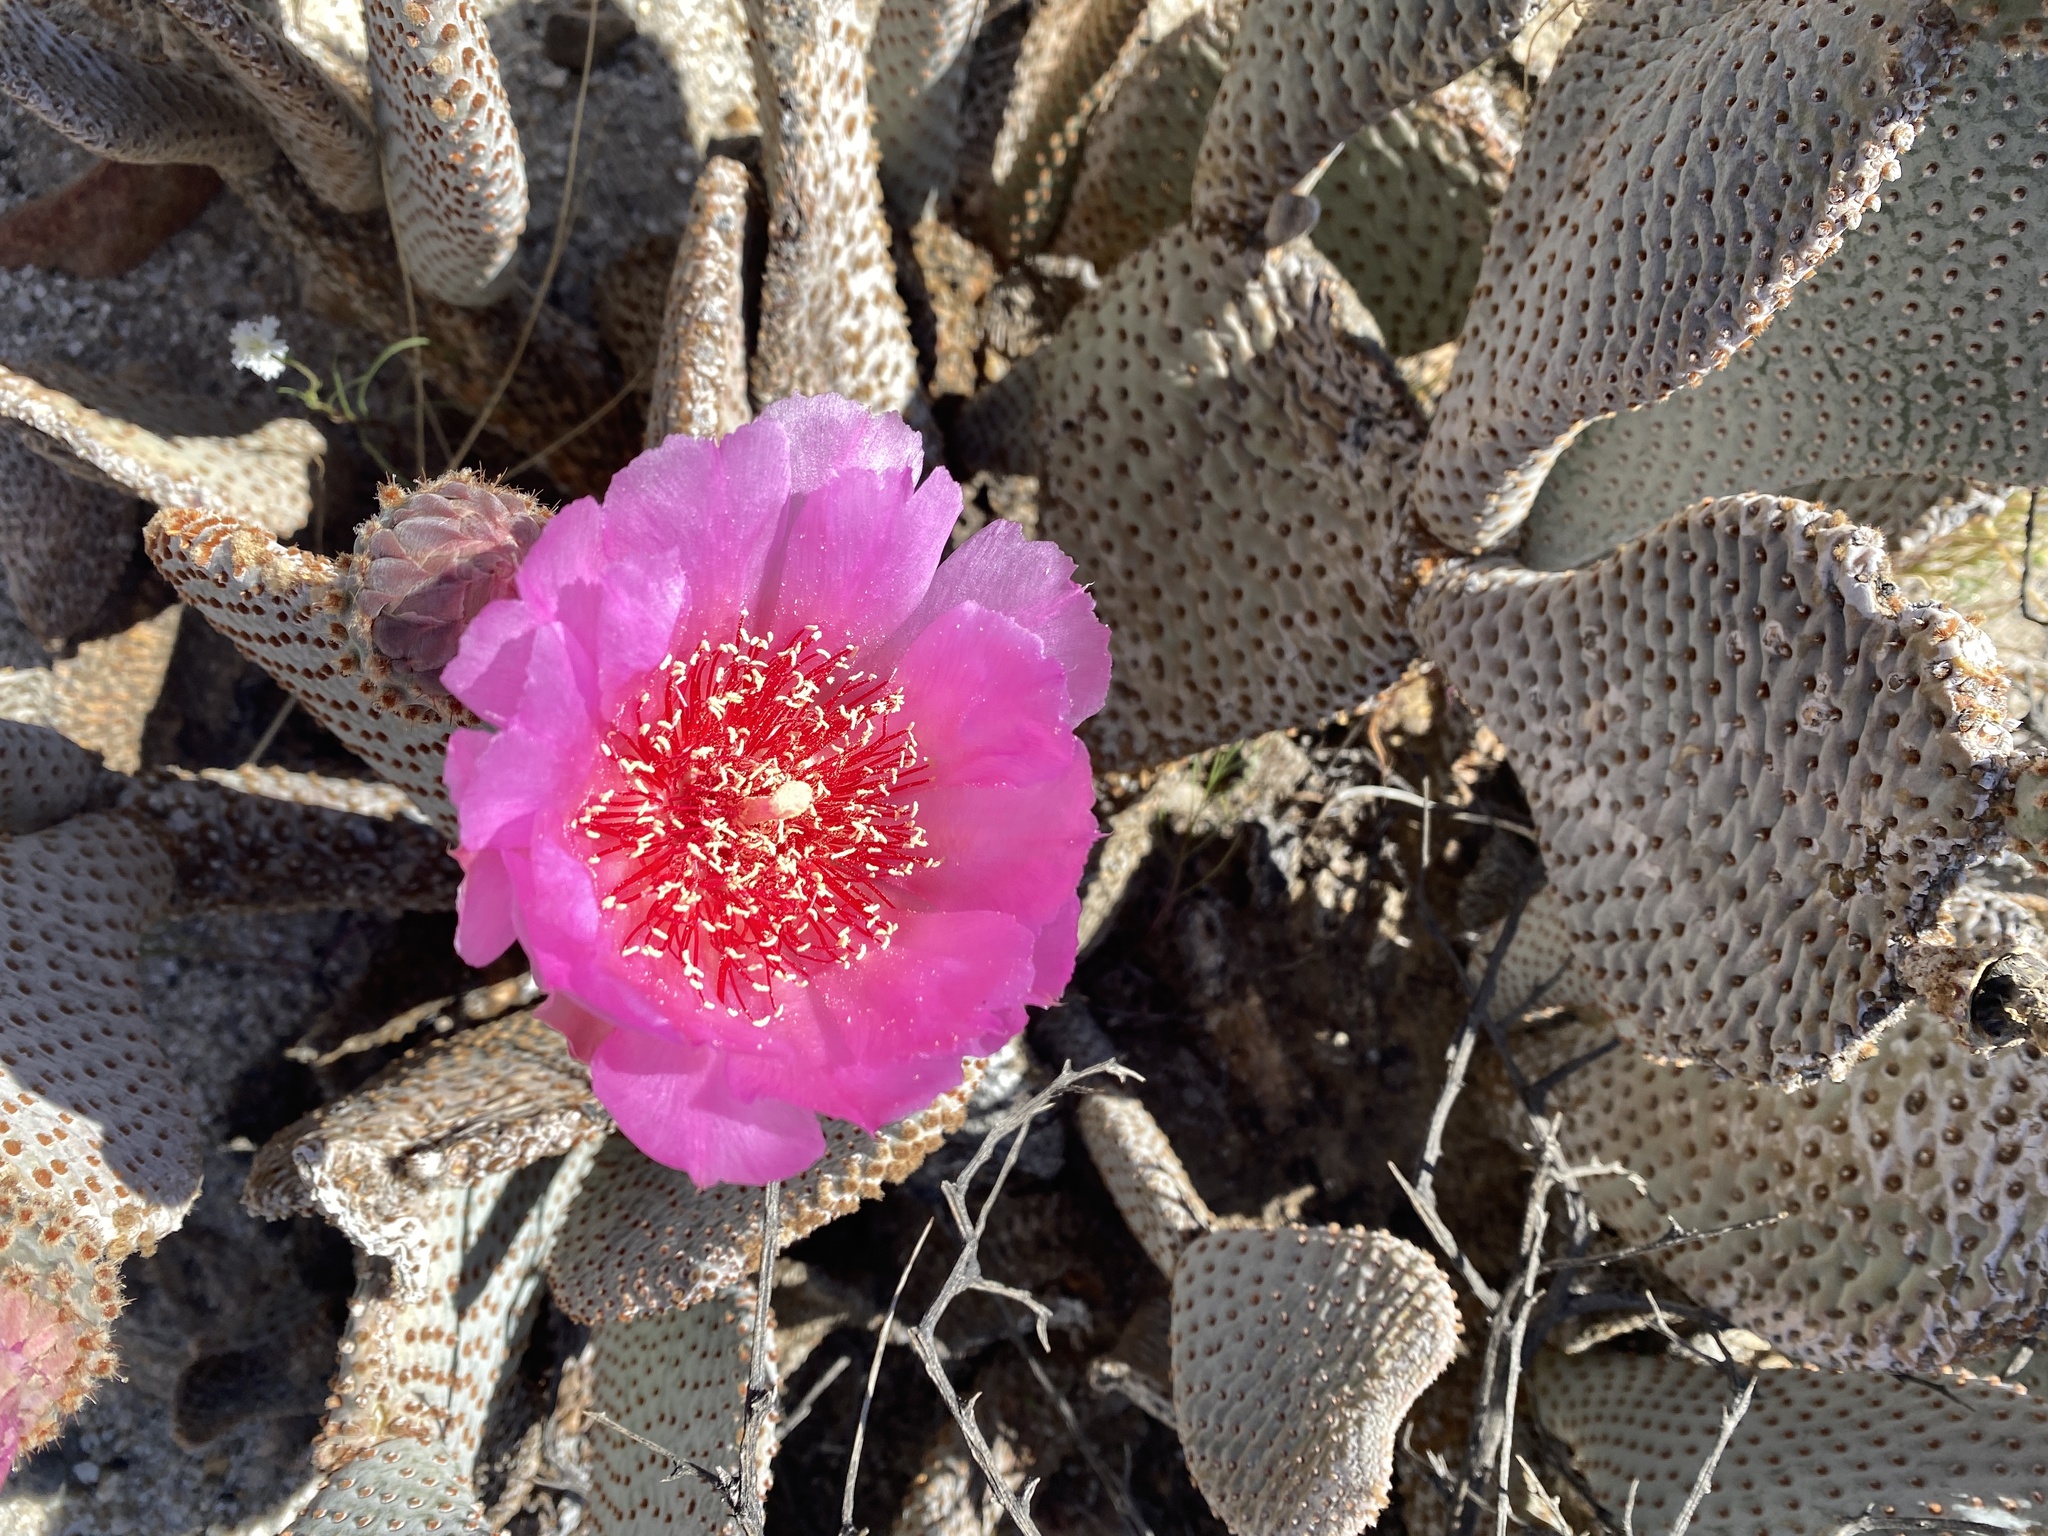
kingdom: Plantae
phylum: Tracheophyta
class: Magnoliopsida
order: Caryophyllales
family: Cactaceae
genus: Opuntia
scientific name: Opuntia basilaris
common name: Beavertail prickly-pear
